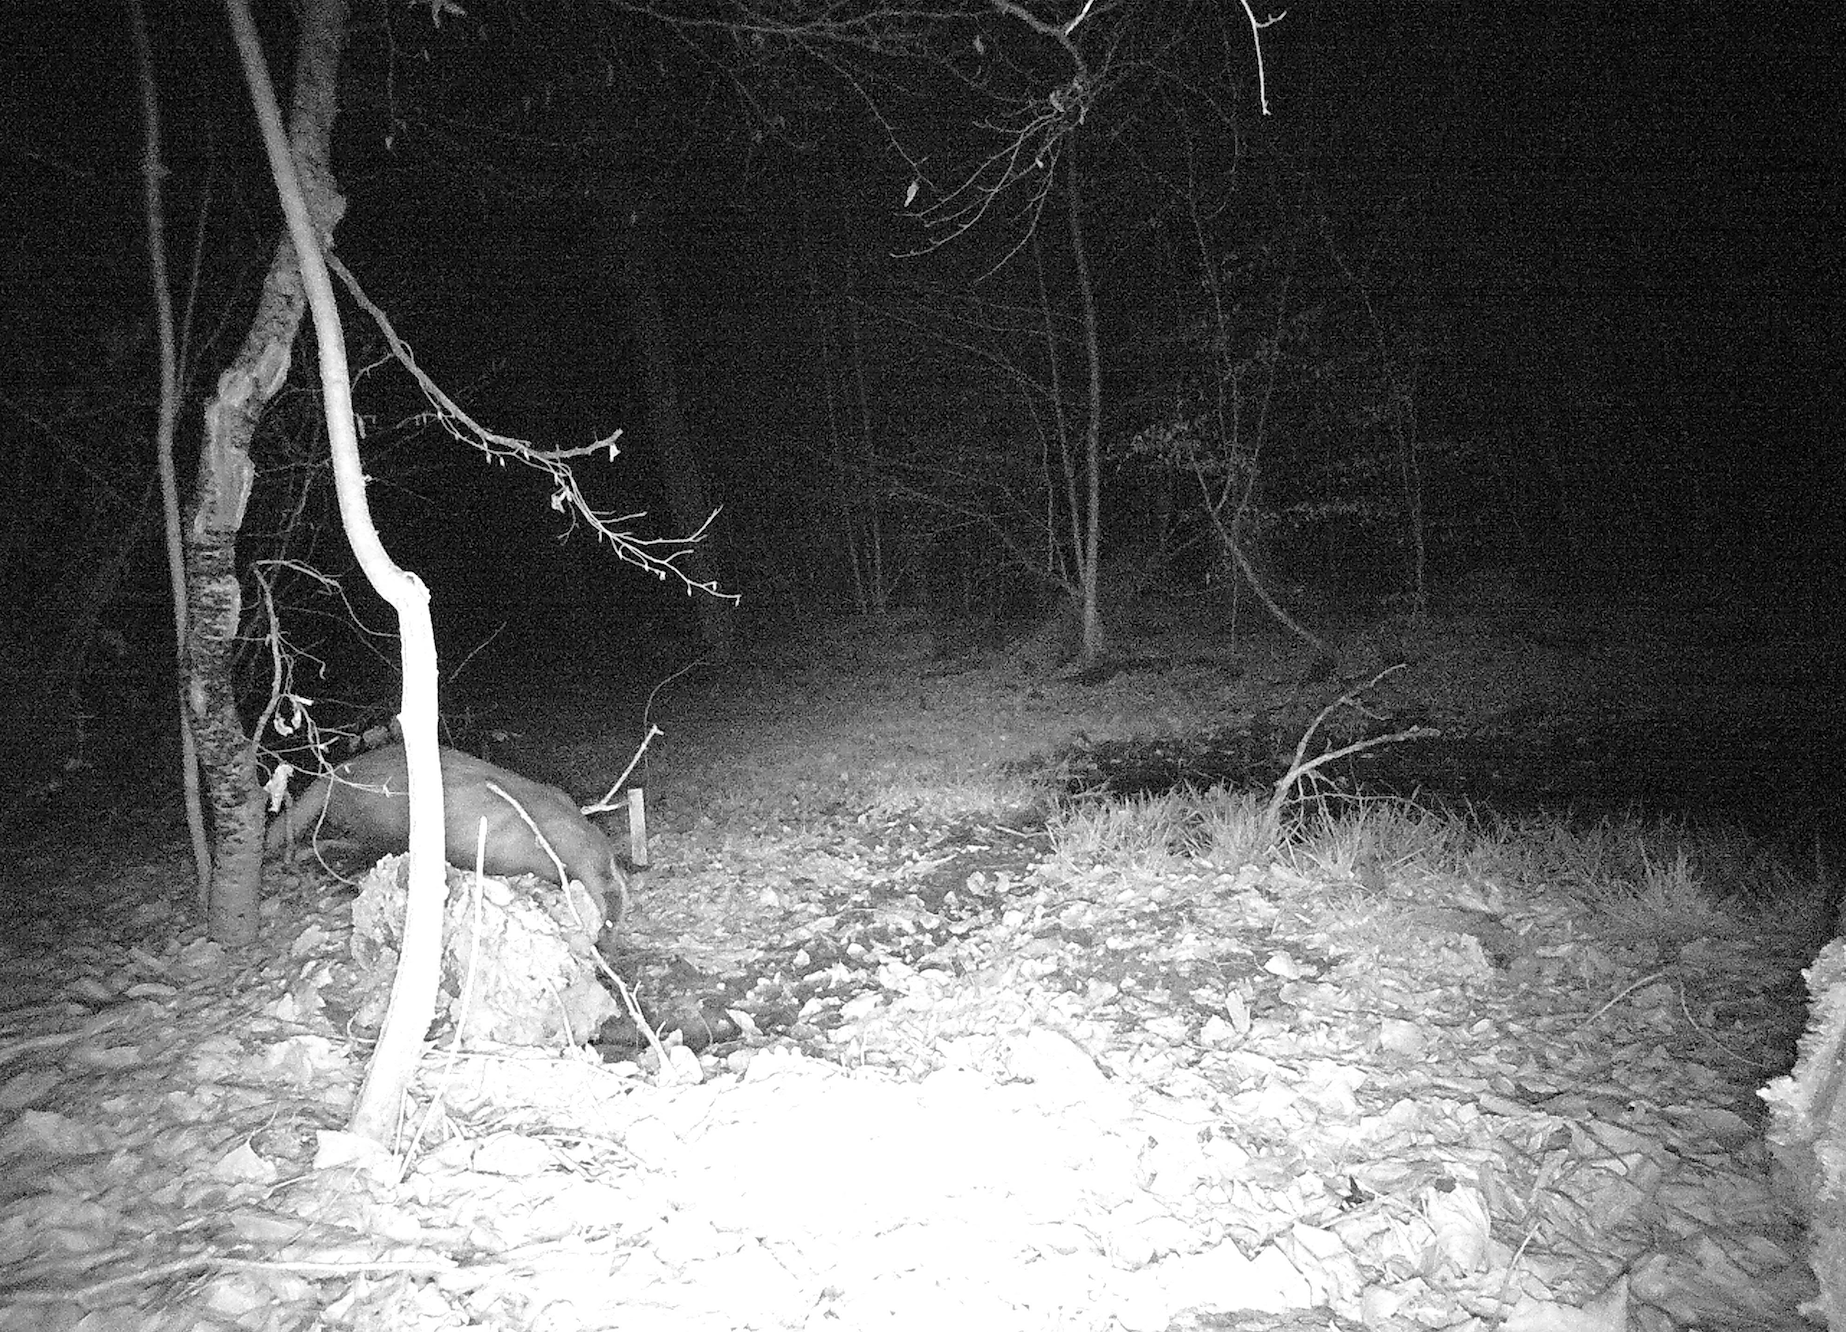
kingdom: Animalia
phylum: Chordata
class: Mammalia
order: Carnivora
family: Mustelidae
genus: Meles
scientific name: Meles meles
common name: Eurasian badger
